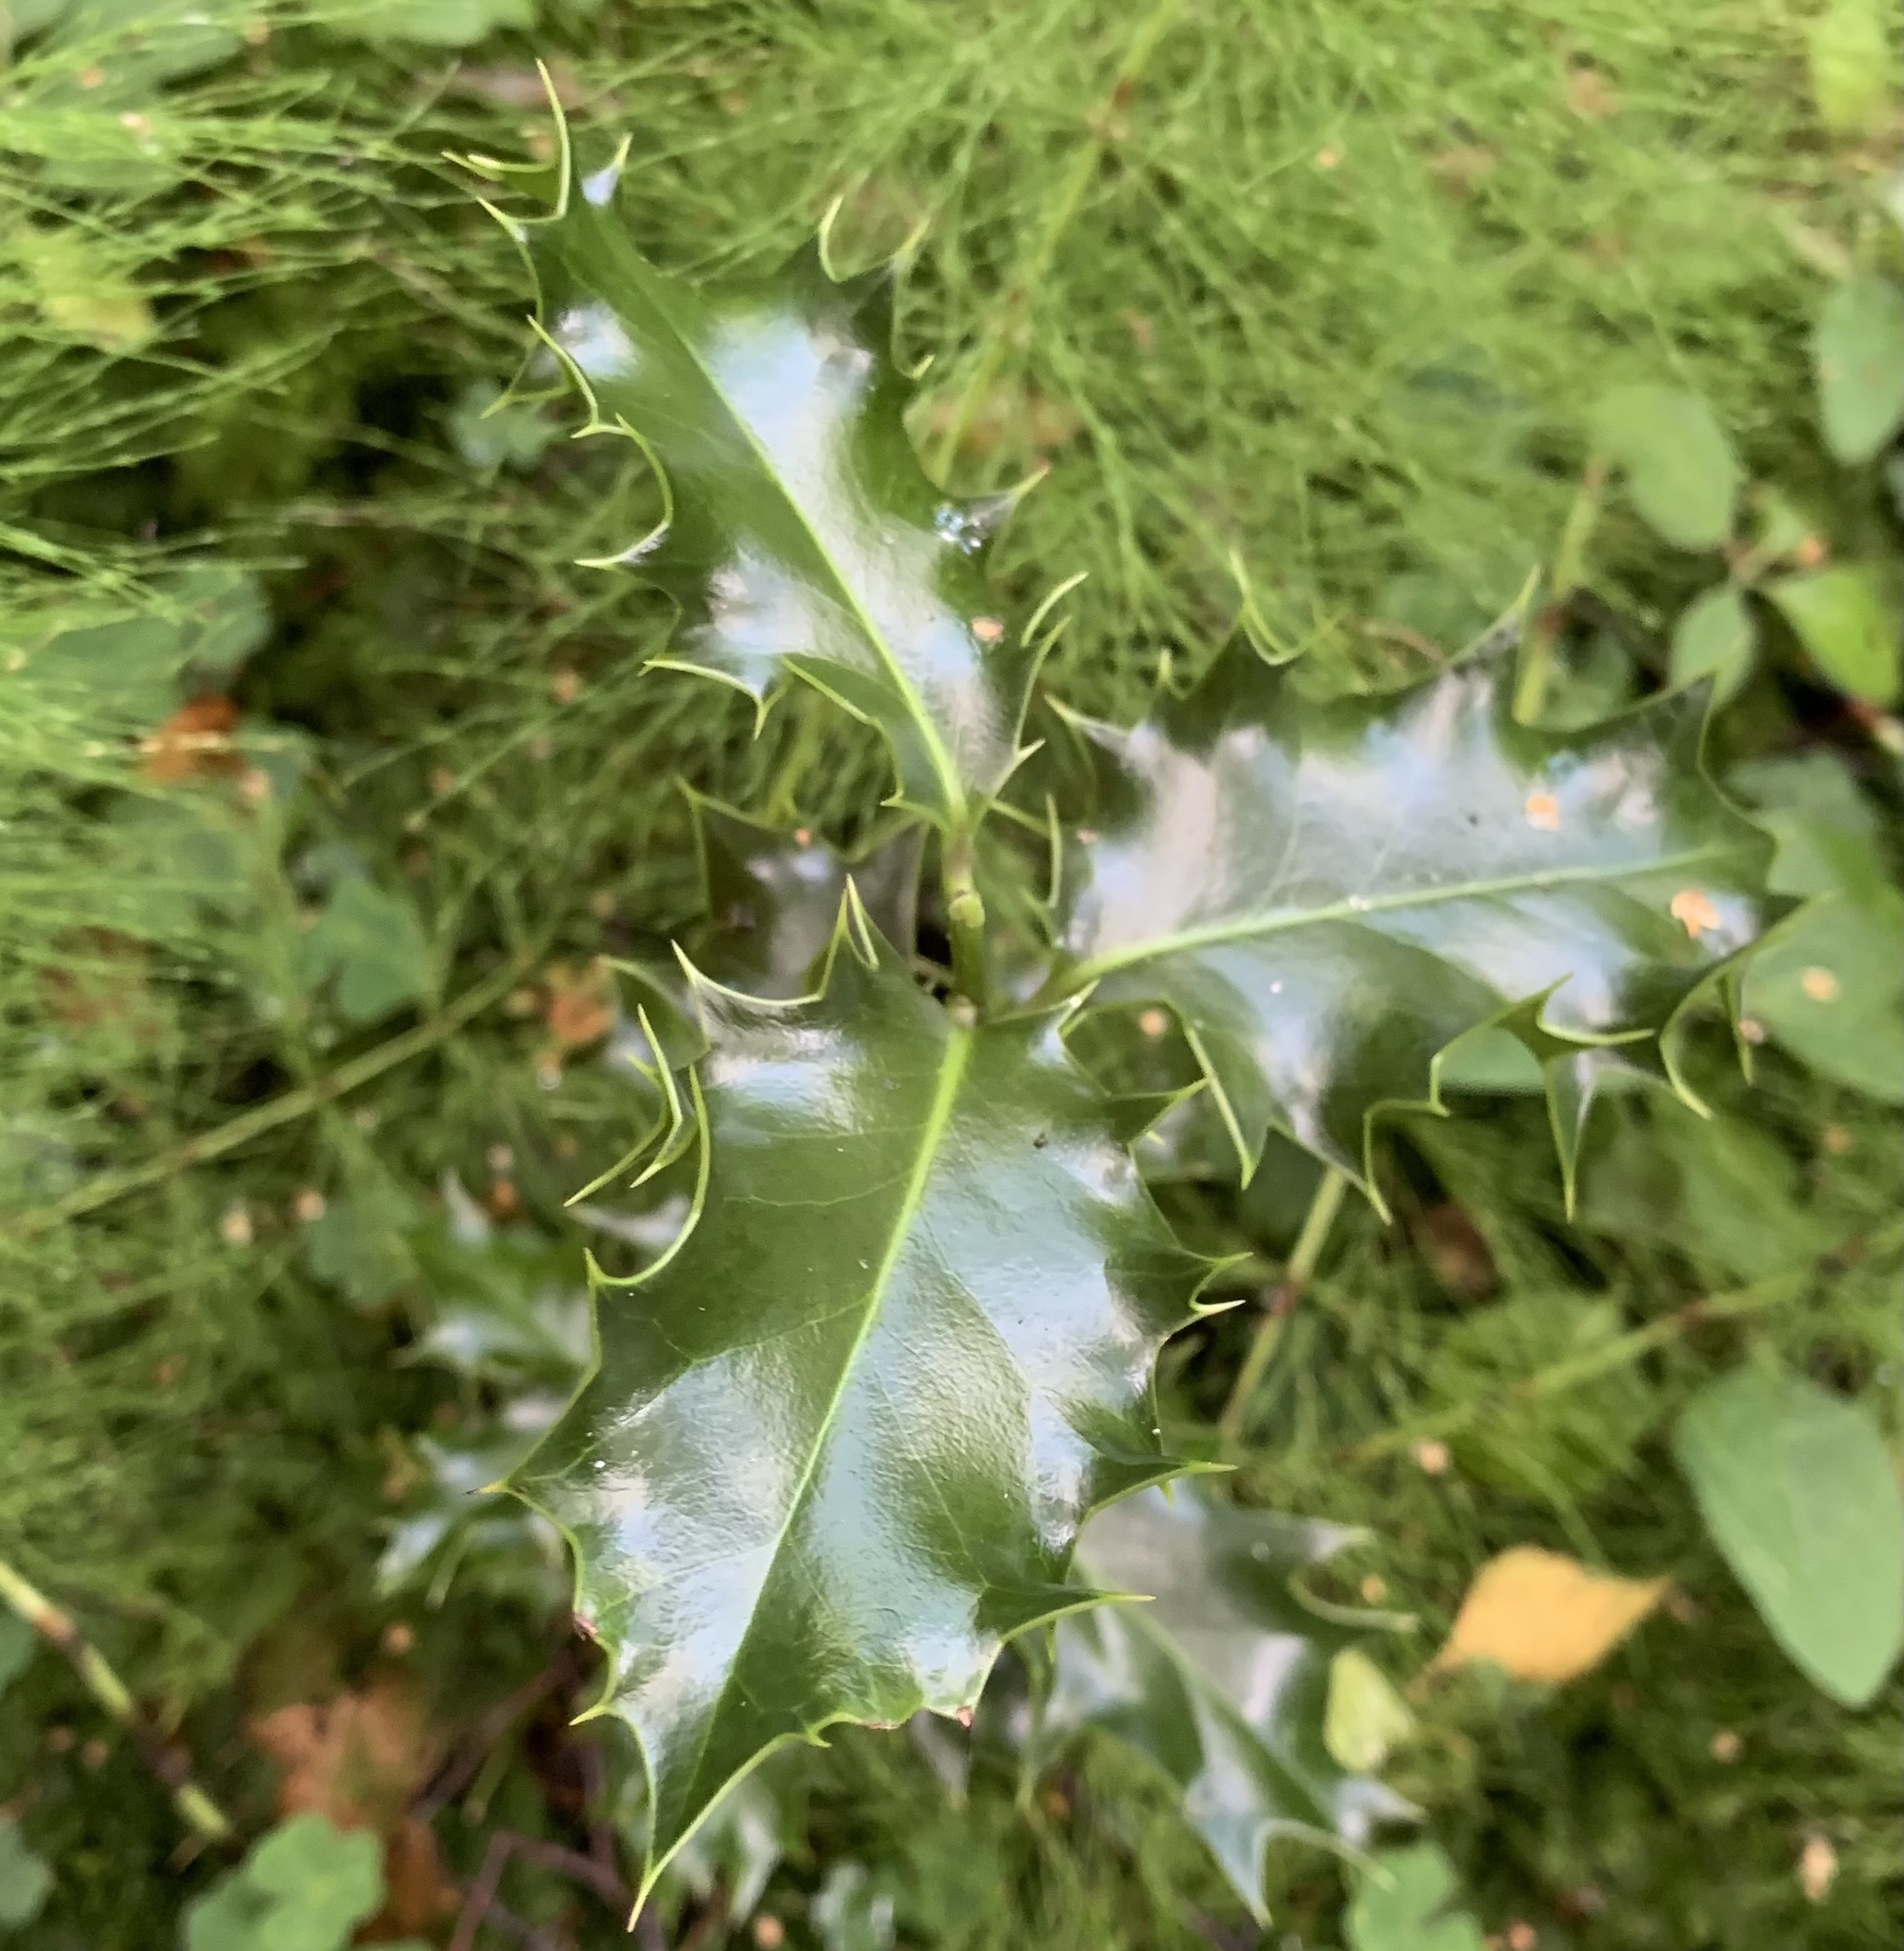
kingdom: Plantae
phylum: Tracheophyta
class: Magnoliopsida
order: Aquifoliales
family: Aquifoliaceae
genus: Ilex
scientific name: Ilex aquifolium
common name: English holly
